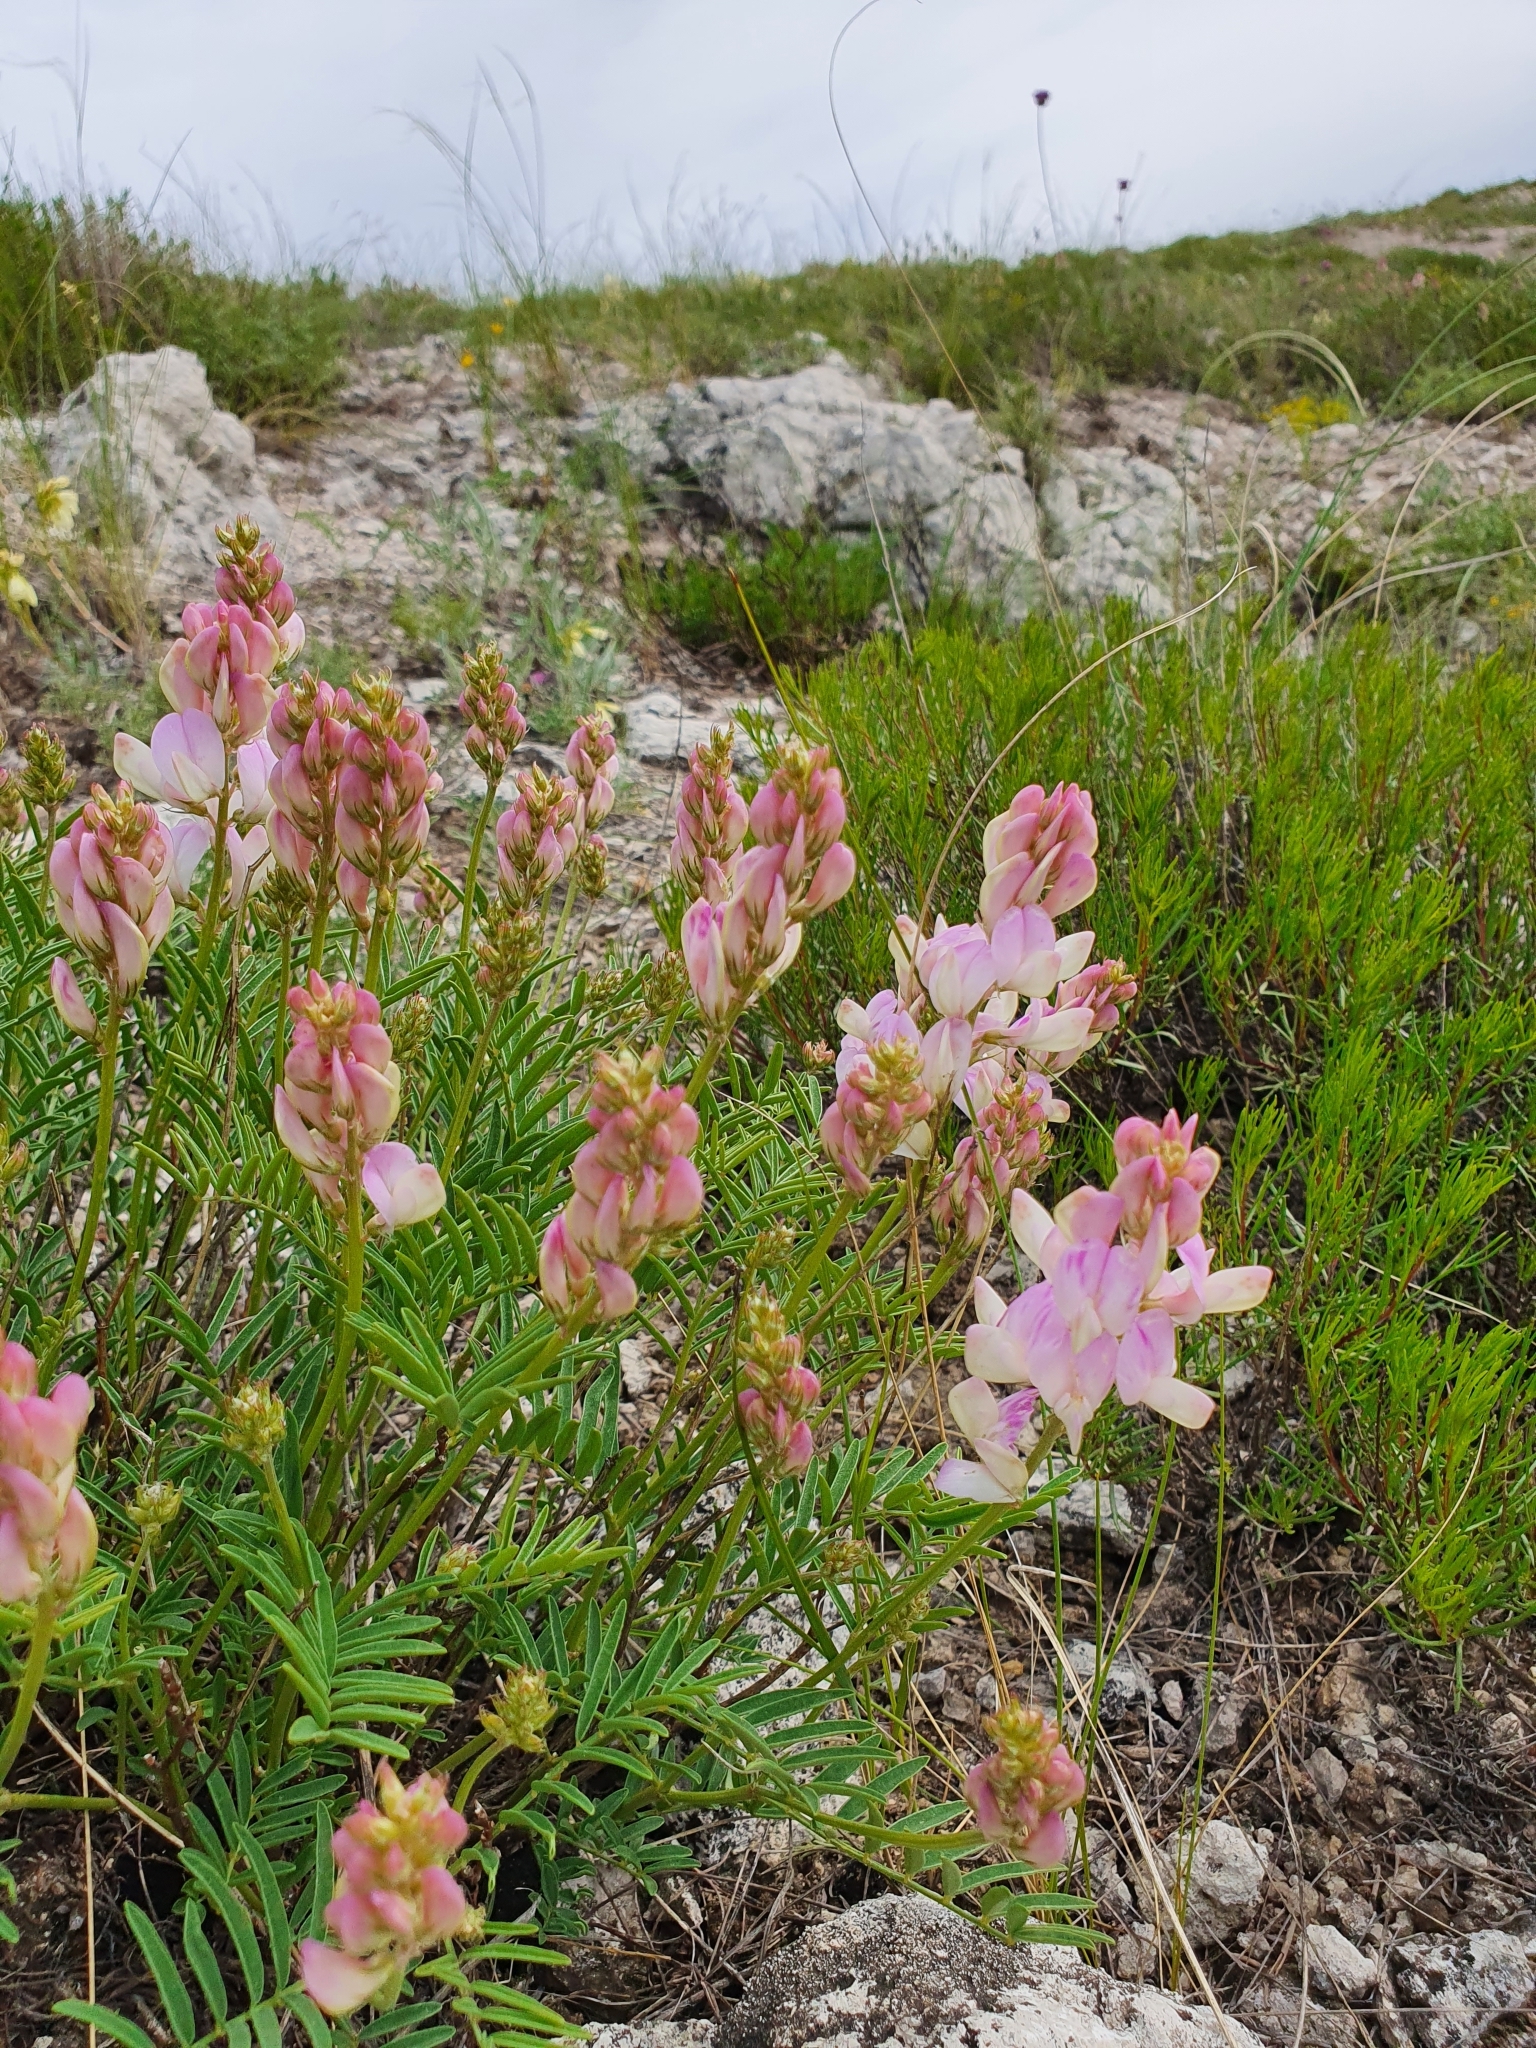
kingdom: Plantae
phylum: Tracheophyta
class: Magnoliopsida
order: Fabales
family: Fabaceae
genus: Hedysarum
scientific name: Hedysarum razoumovianum
